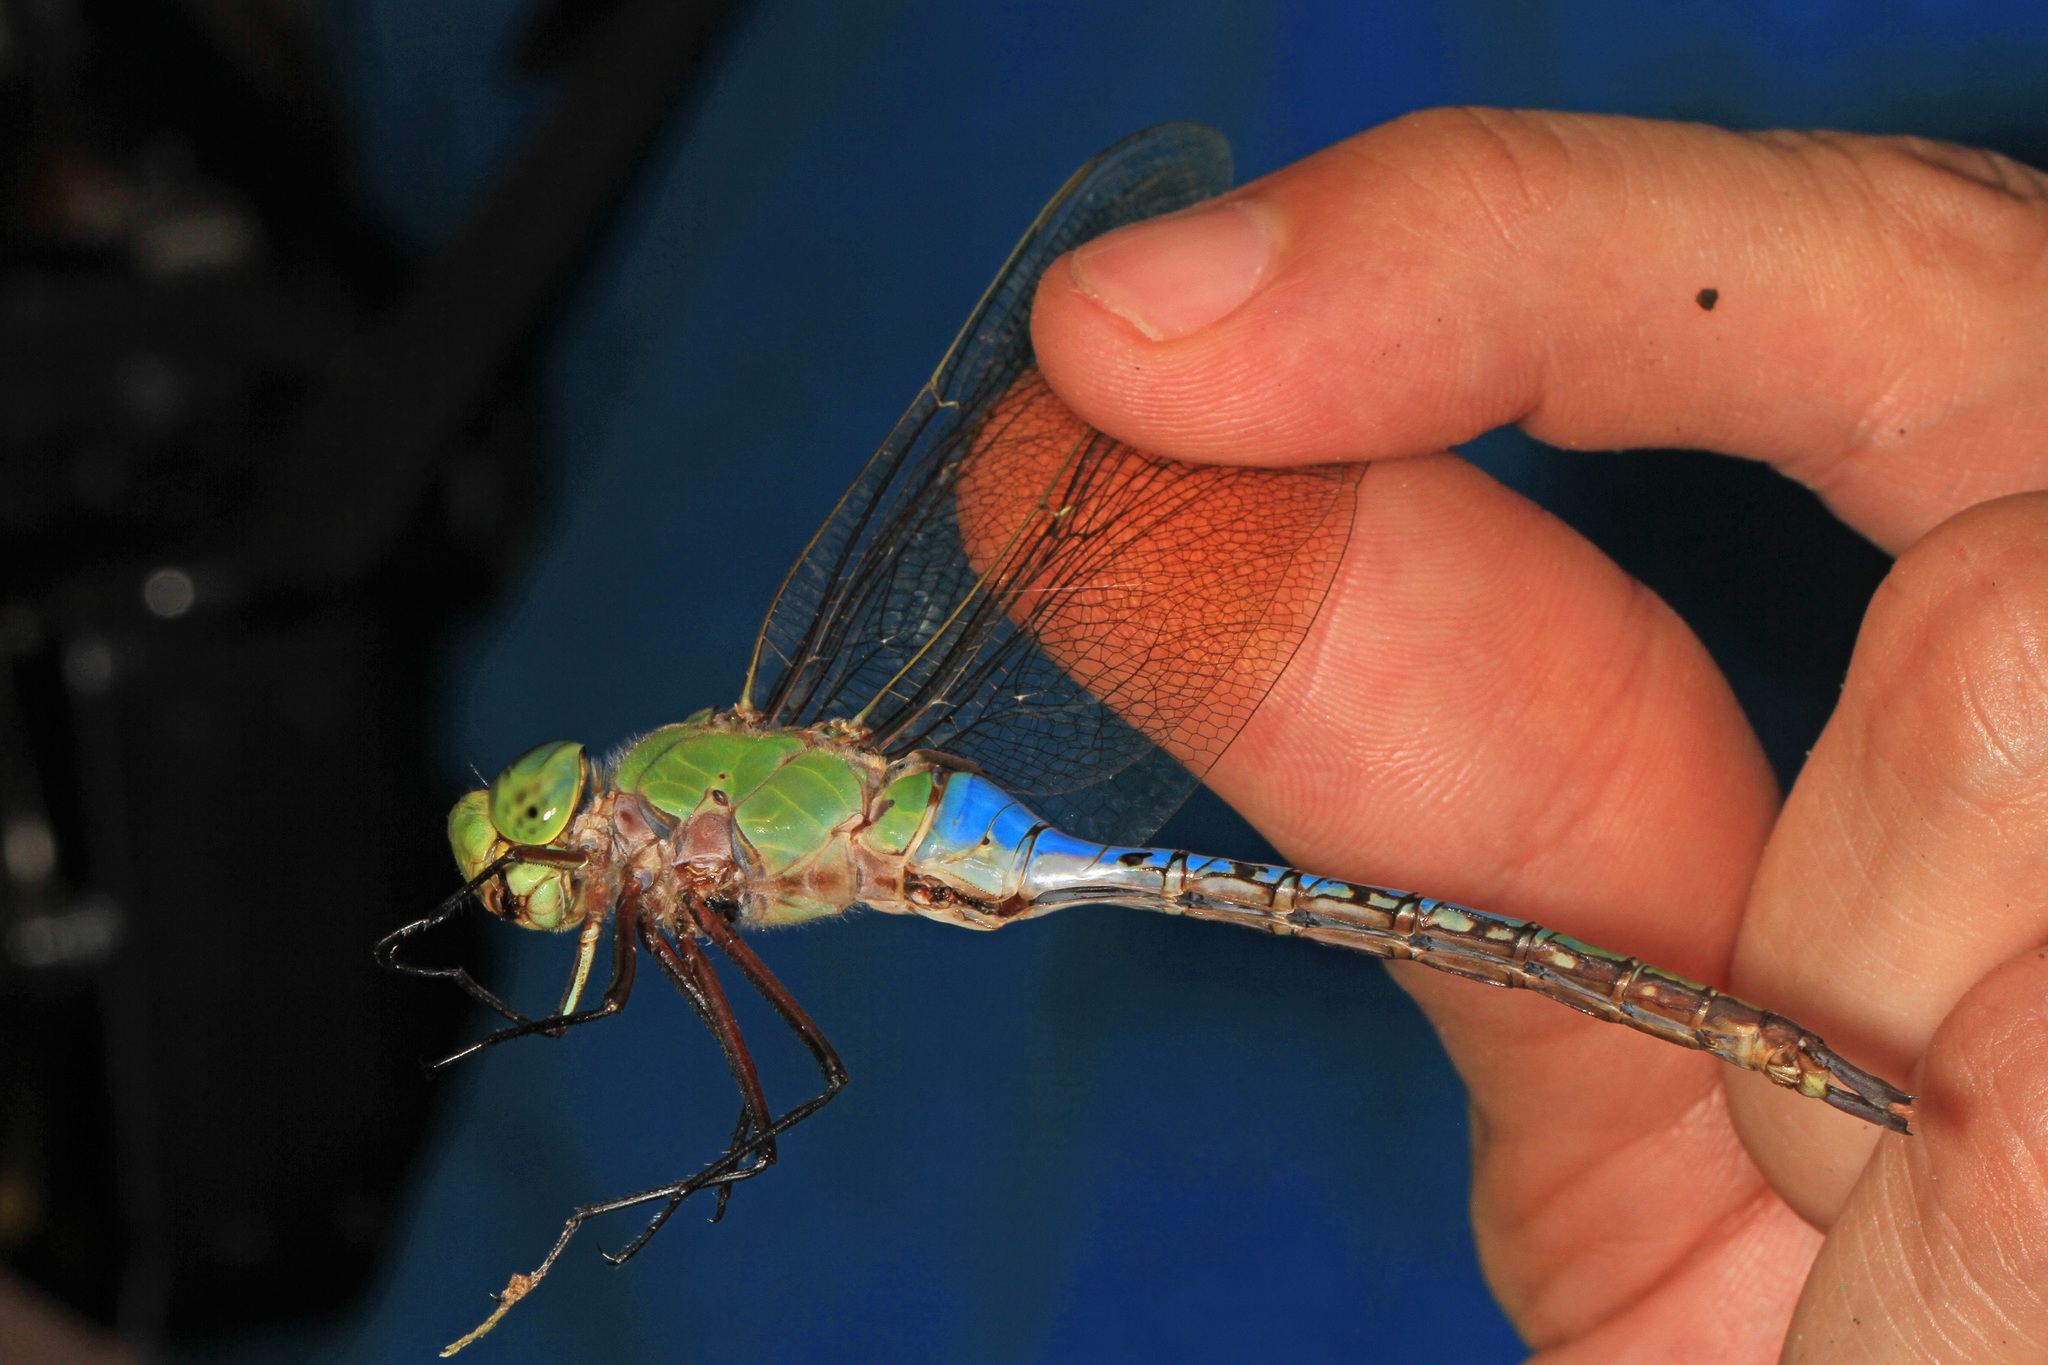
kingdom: Animalia
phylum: Arthropoda
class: Insecta
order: Odonata
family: Aeshnidae
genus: Anax
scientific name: Anax junius
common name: Common green darner
